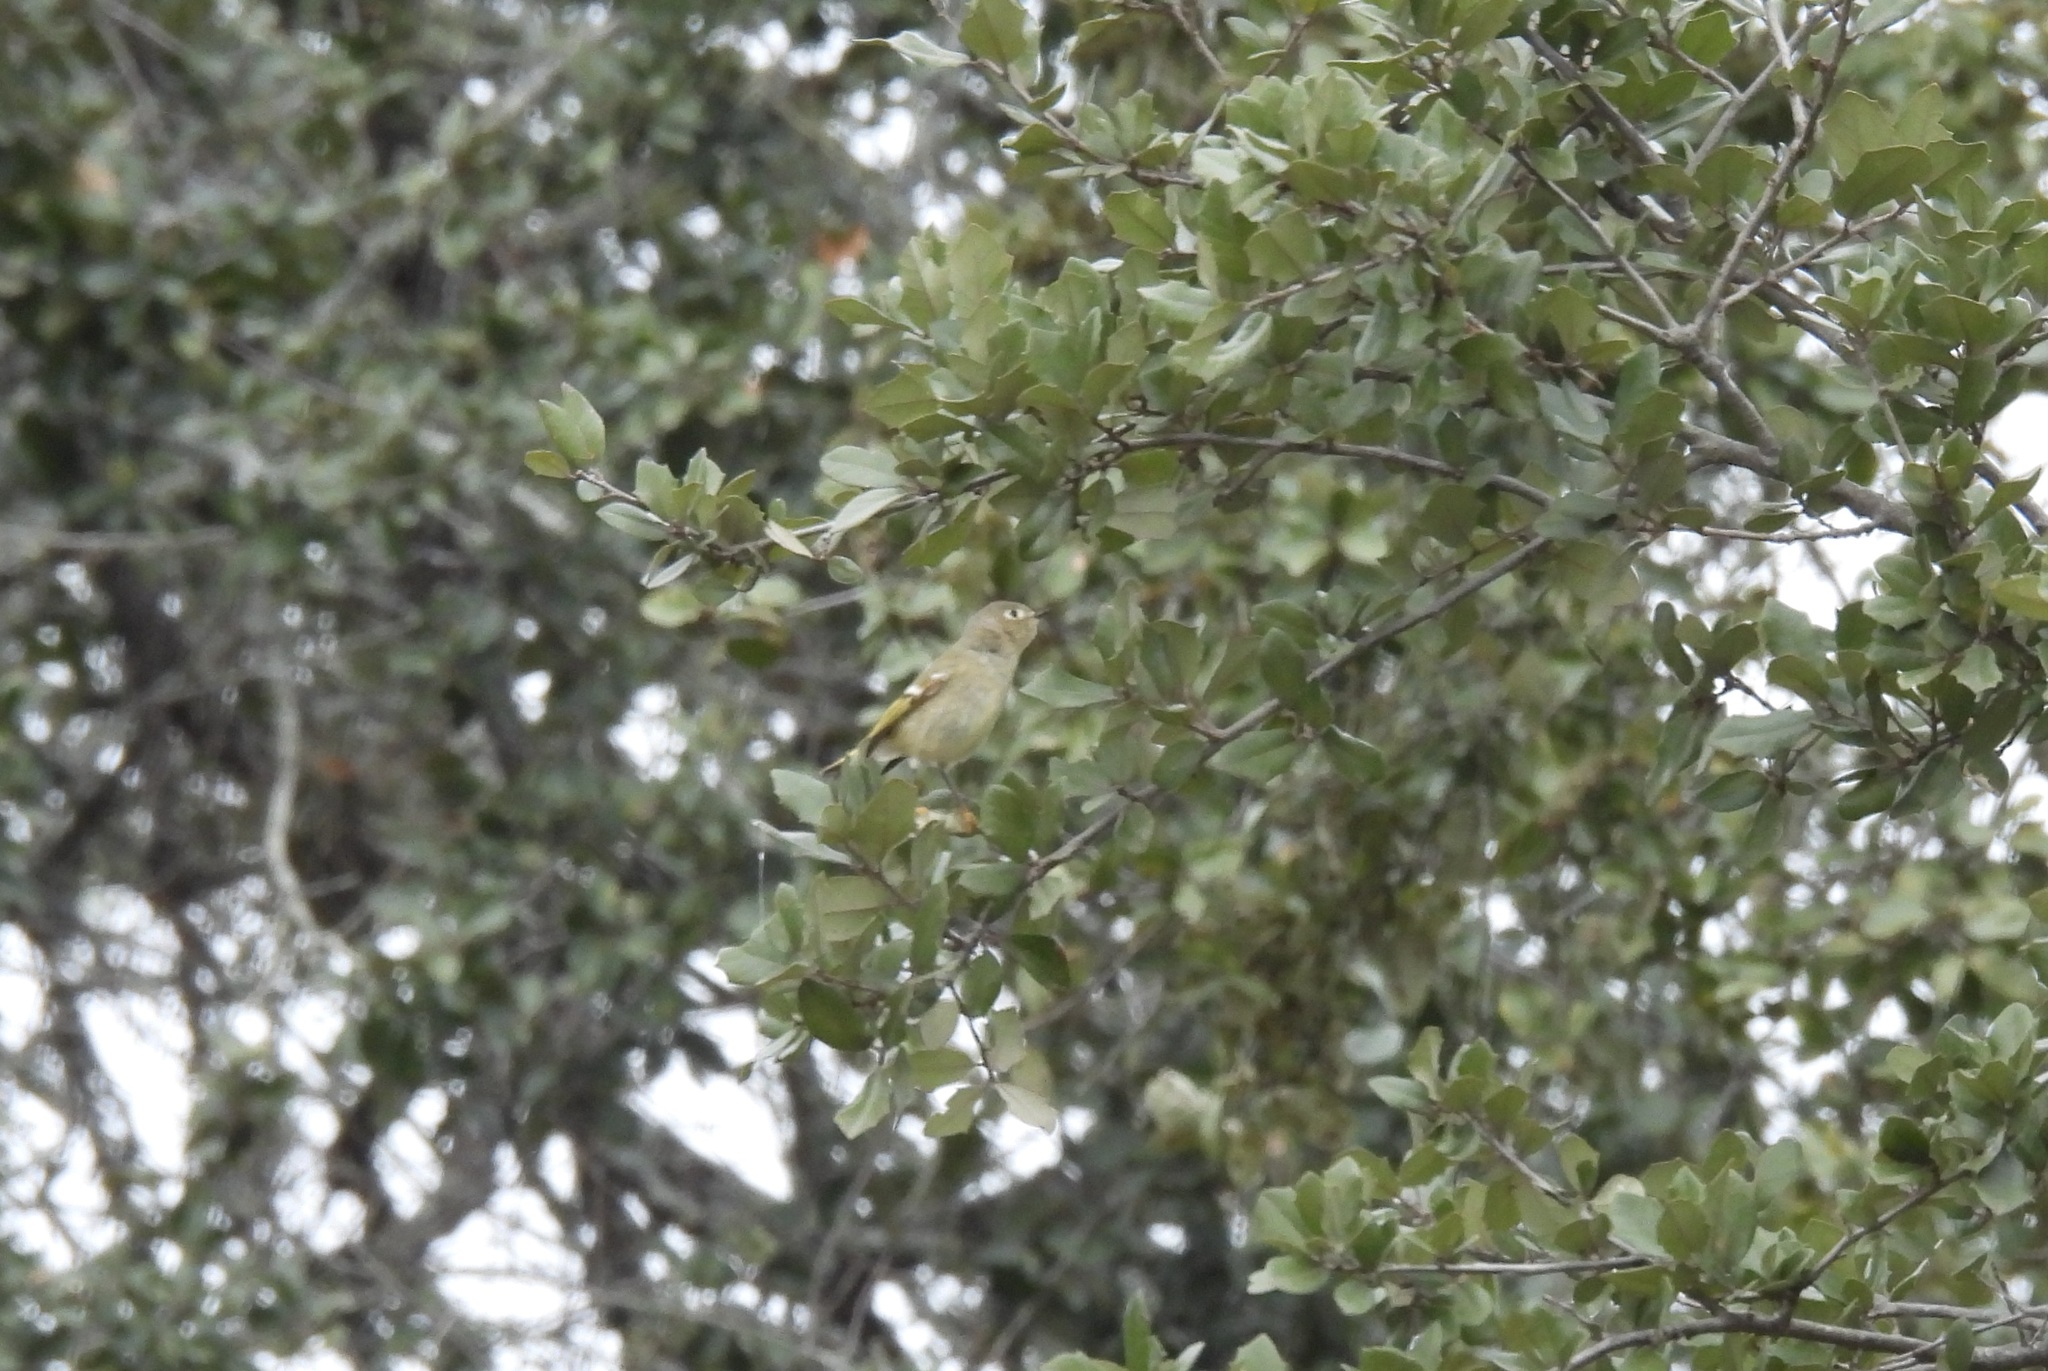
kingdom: Animalia
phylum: Chordata
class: Aves
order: Passeriformes
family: Regulidae
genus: Regulus
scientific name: Regulus calendula
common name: Ruby-crowned kinglet
